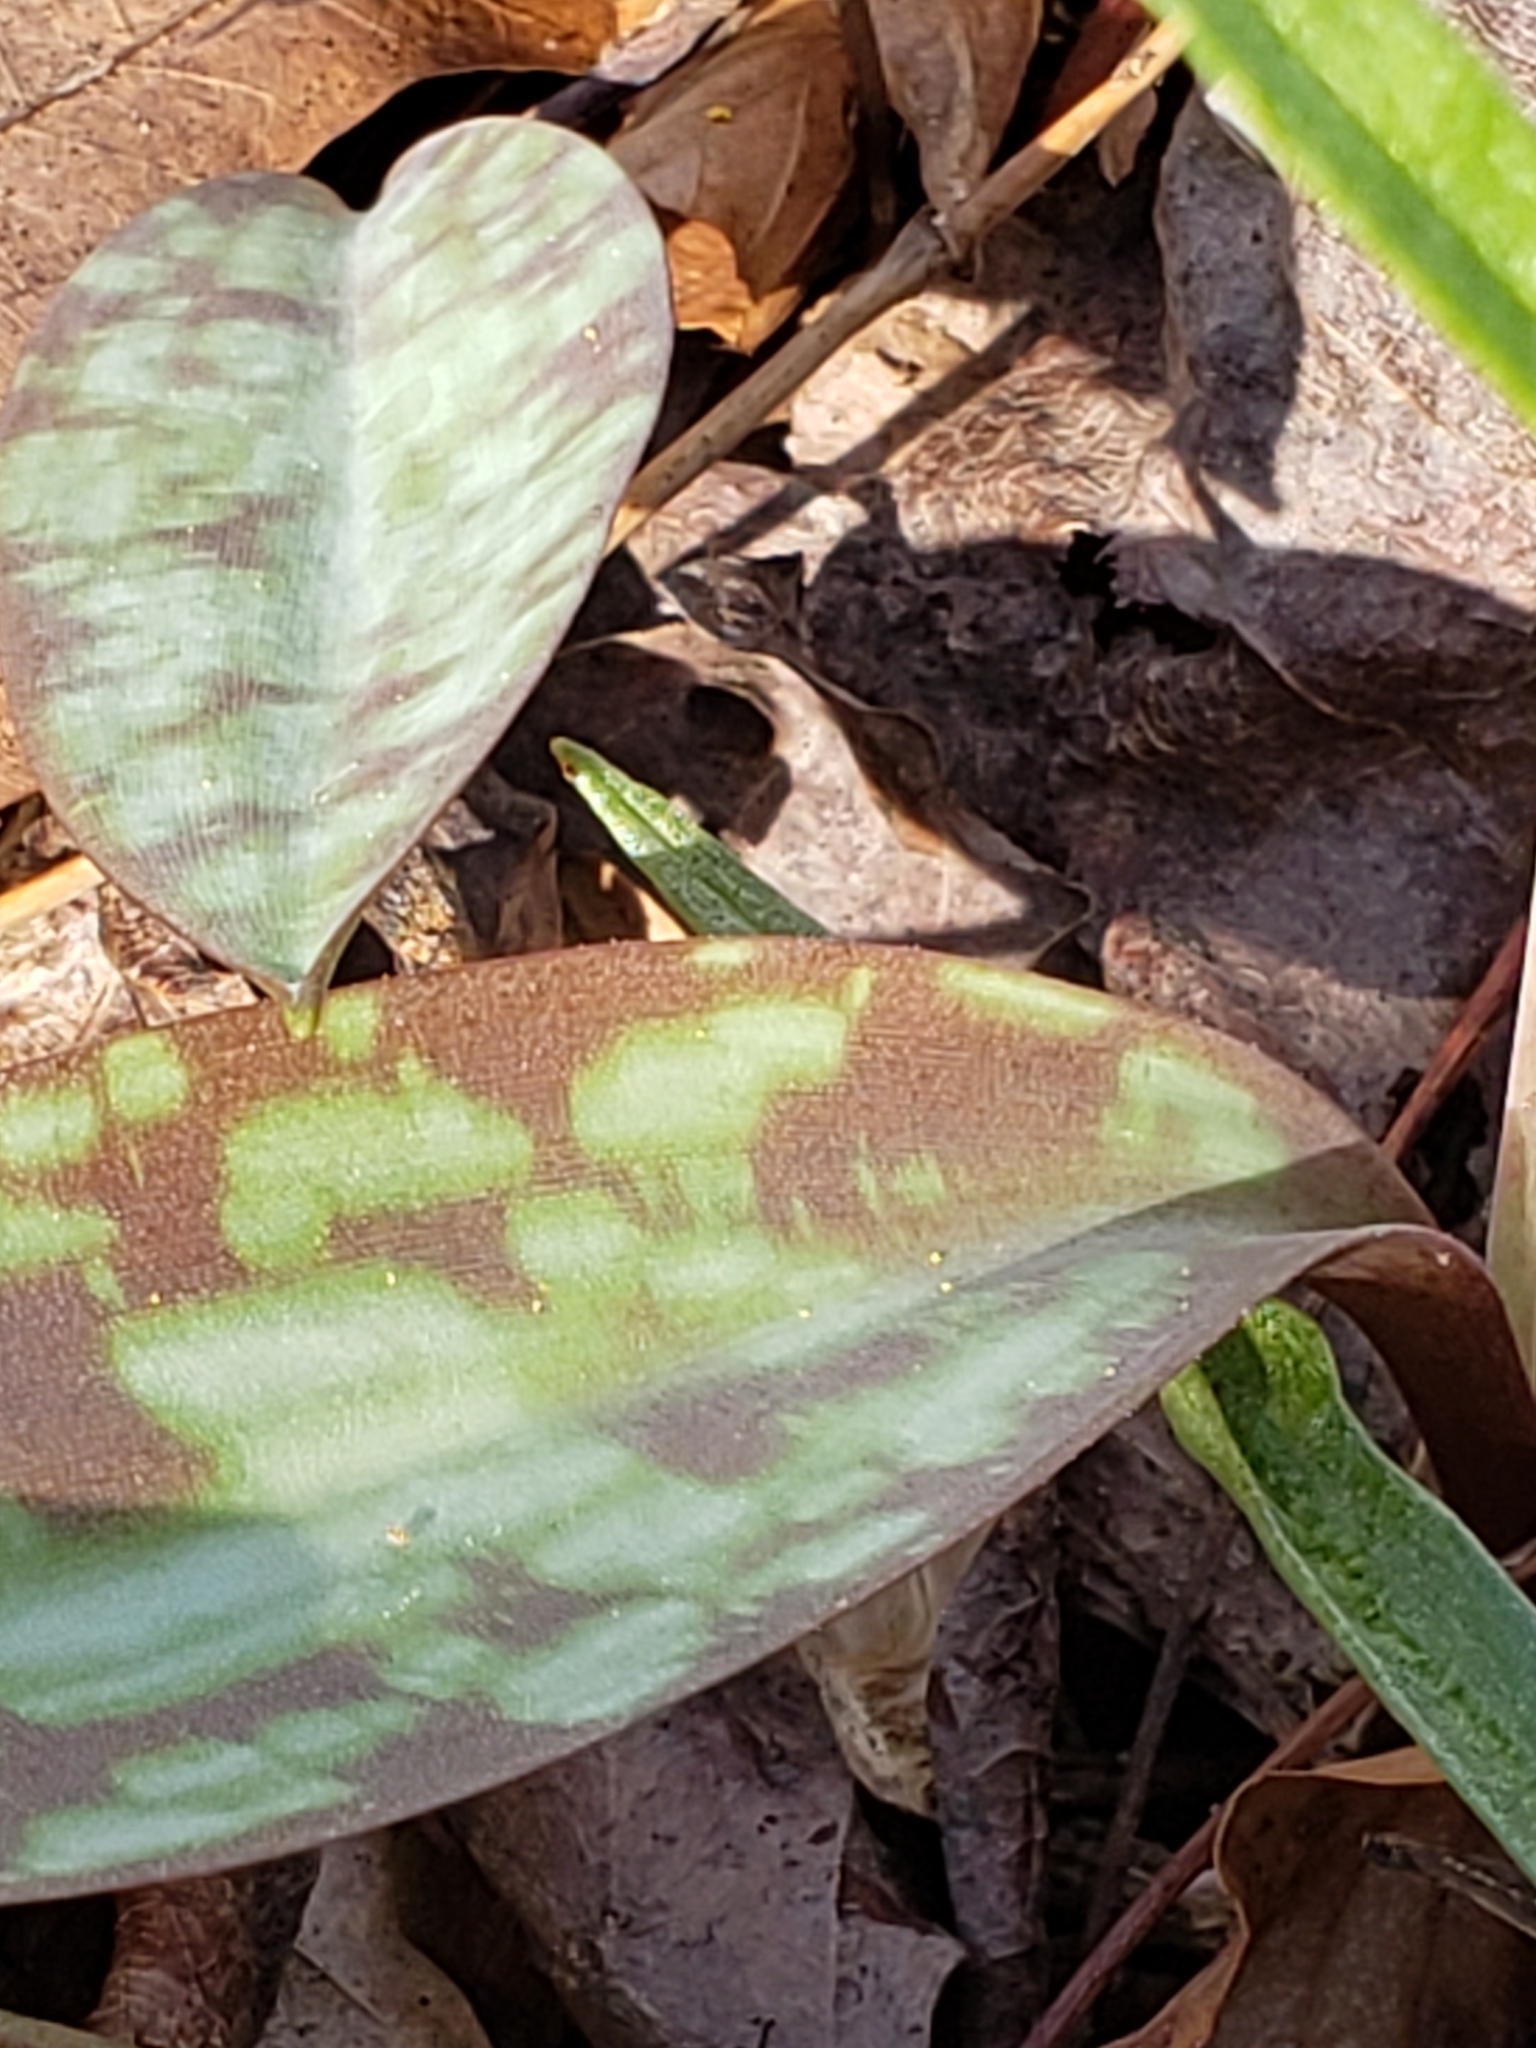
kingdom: Plantae
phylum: Tracheophyta
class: Liliopsida
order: Liliales
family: Liliaceae
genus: Erythronium
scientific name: Erythronium americanum
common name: Yellow adder's-tongue
